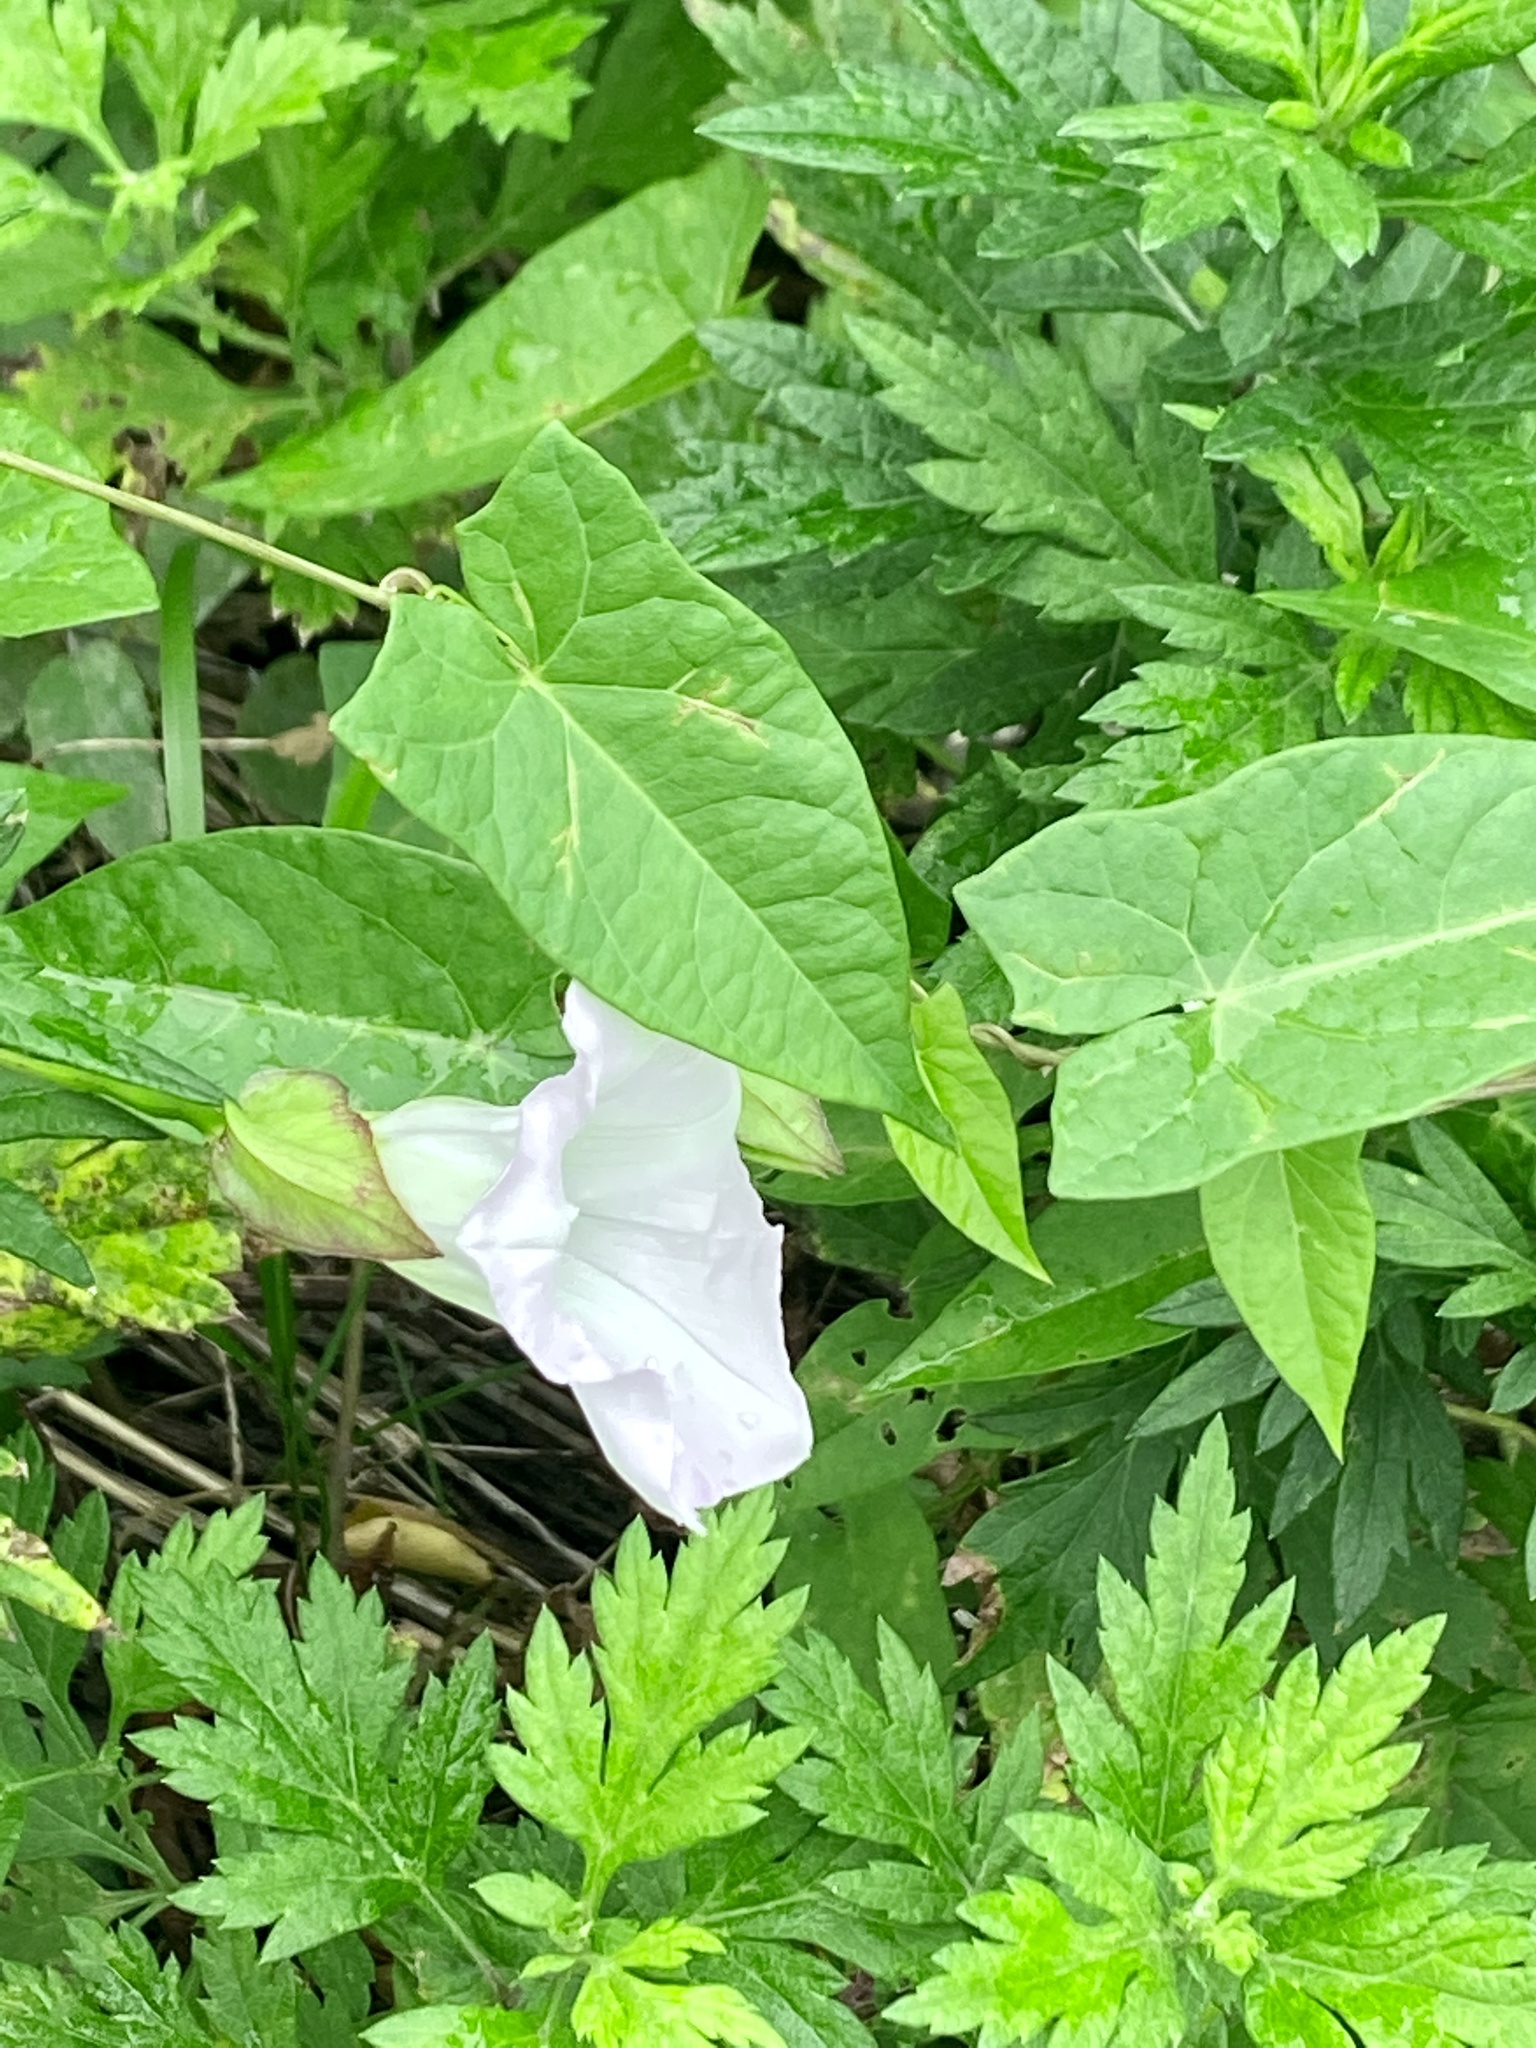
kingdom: Plantae
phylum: Tracheophyta
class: Magnoliopsida
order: Solanales
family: Convolvulaceae
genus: Calystegia
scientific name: Calystegia sepium
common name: Hedge bindweed
